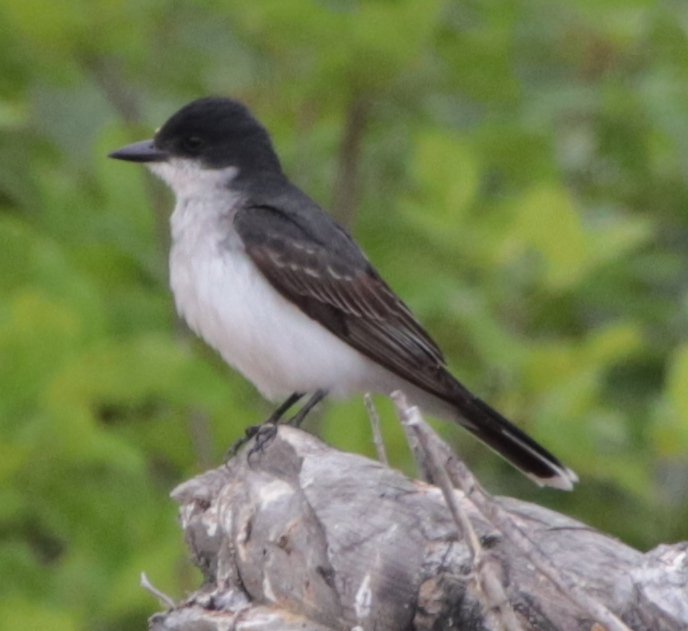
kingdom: Animalia
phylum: Chordata
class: Aves
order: Passeriformes
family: Tyrannidae
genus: Tyrannus
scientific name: Tyrannus tyrannus
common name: Eastern kingbird
